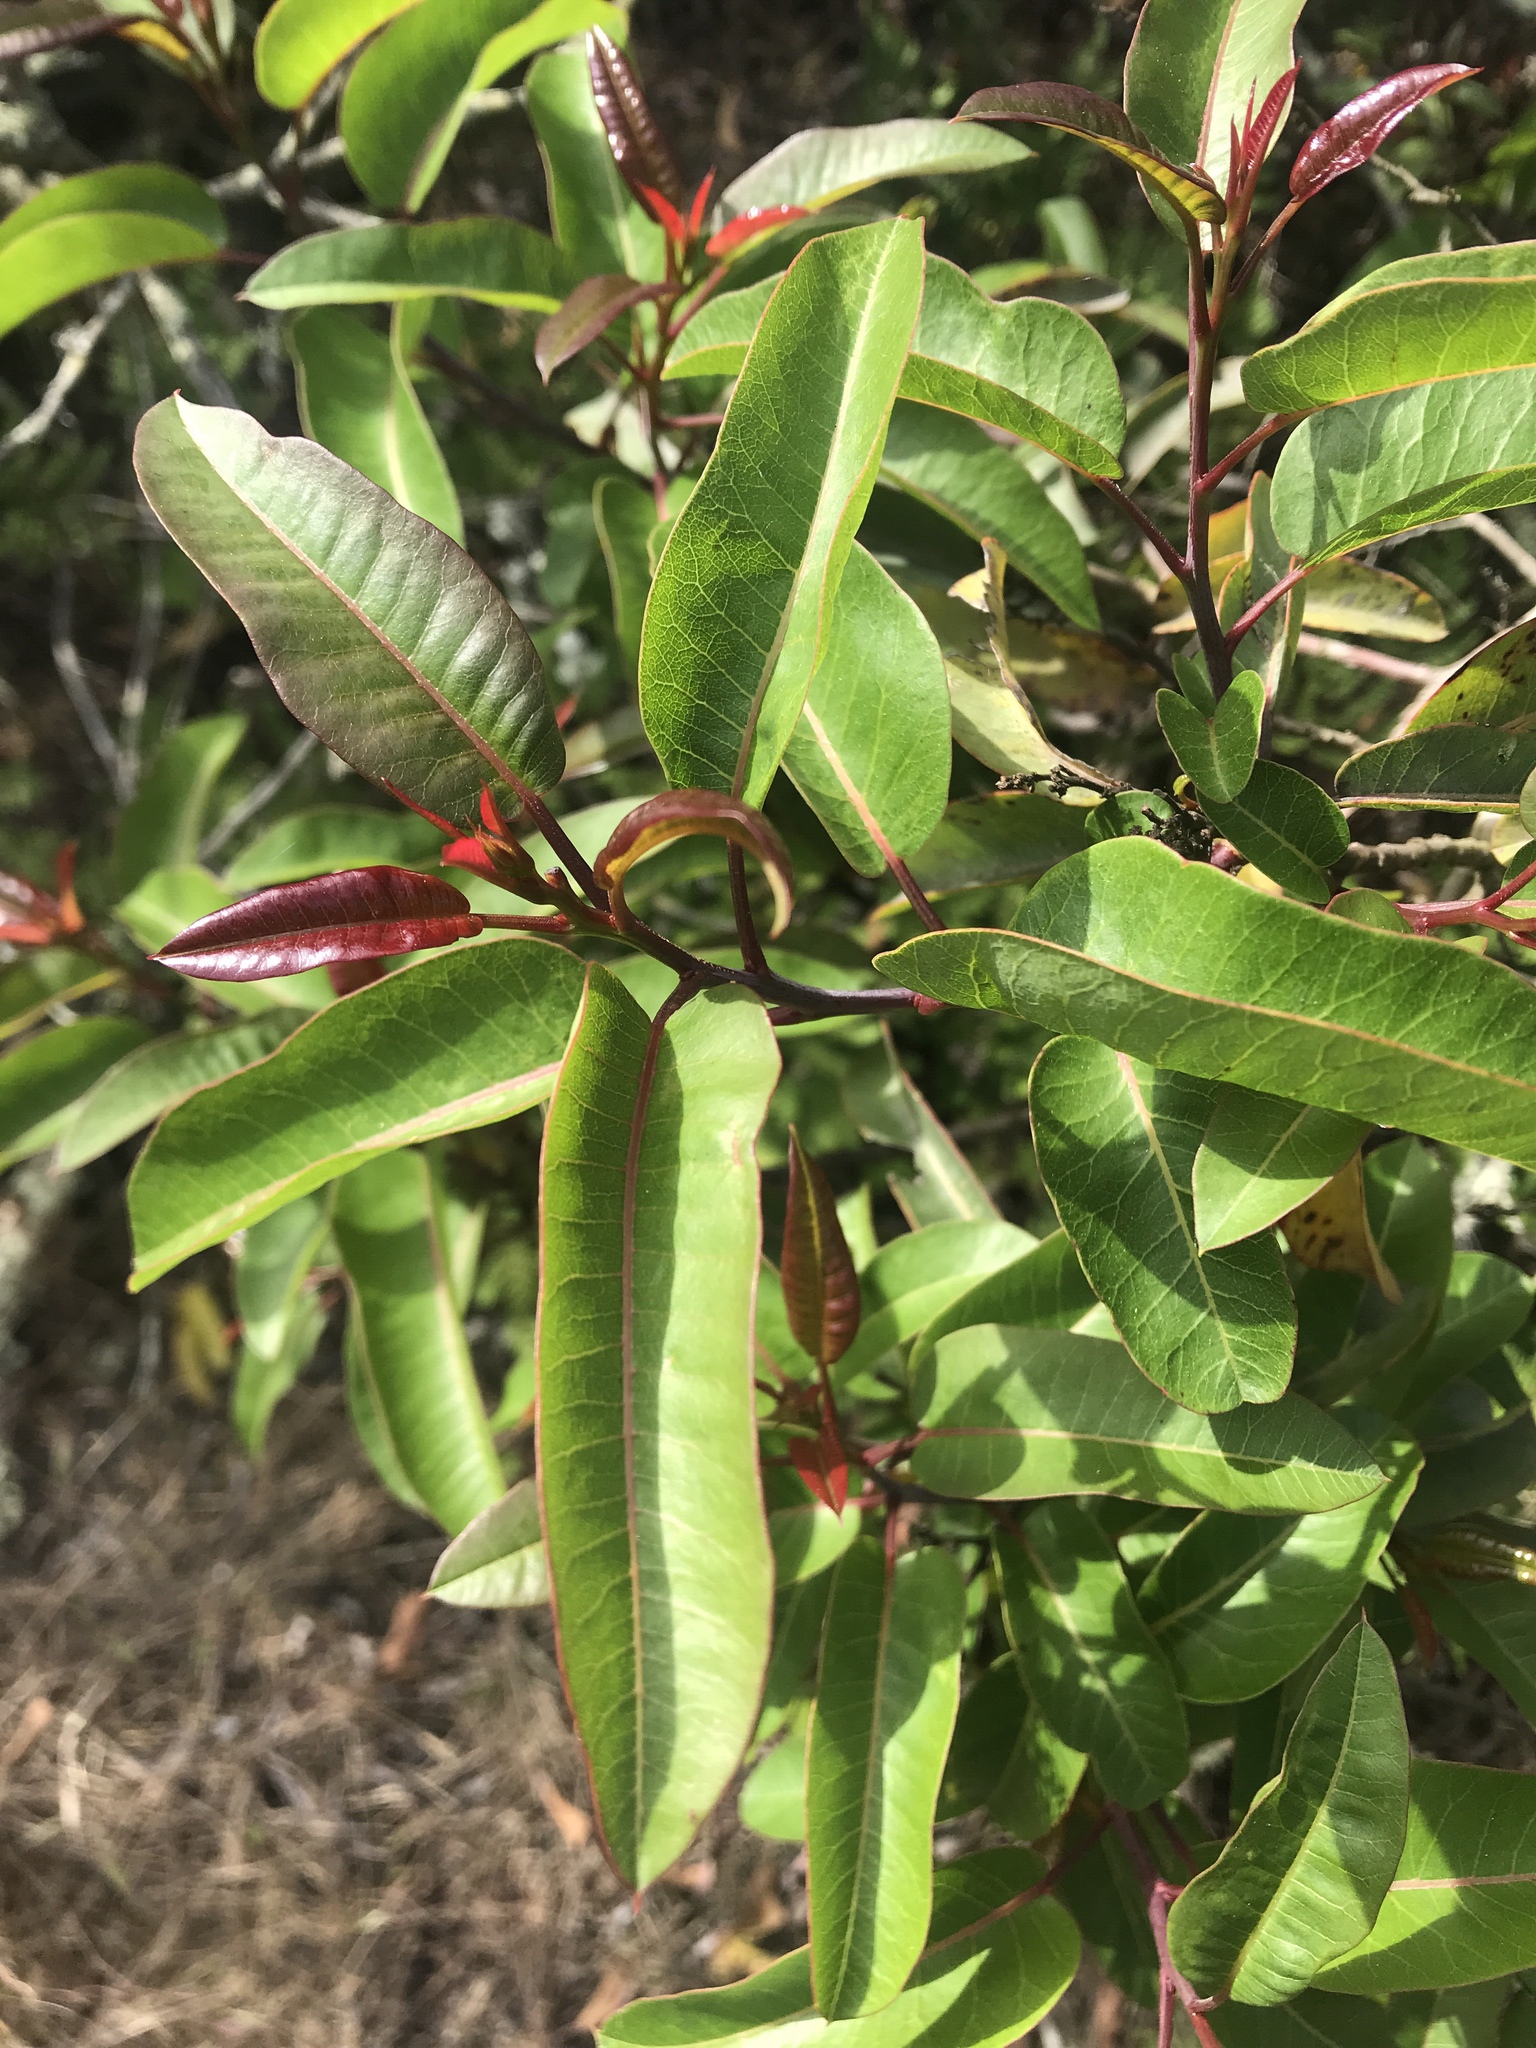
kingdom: Plantae
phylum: Tracheophyta
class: Magnoliopsida
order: Sapindales
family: Anacardiaceae
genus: Malosma
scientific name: Malosma laurina
